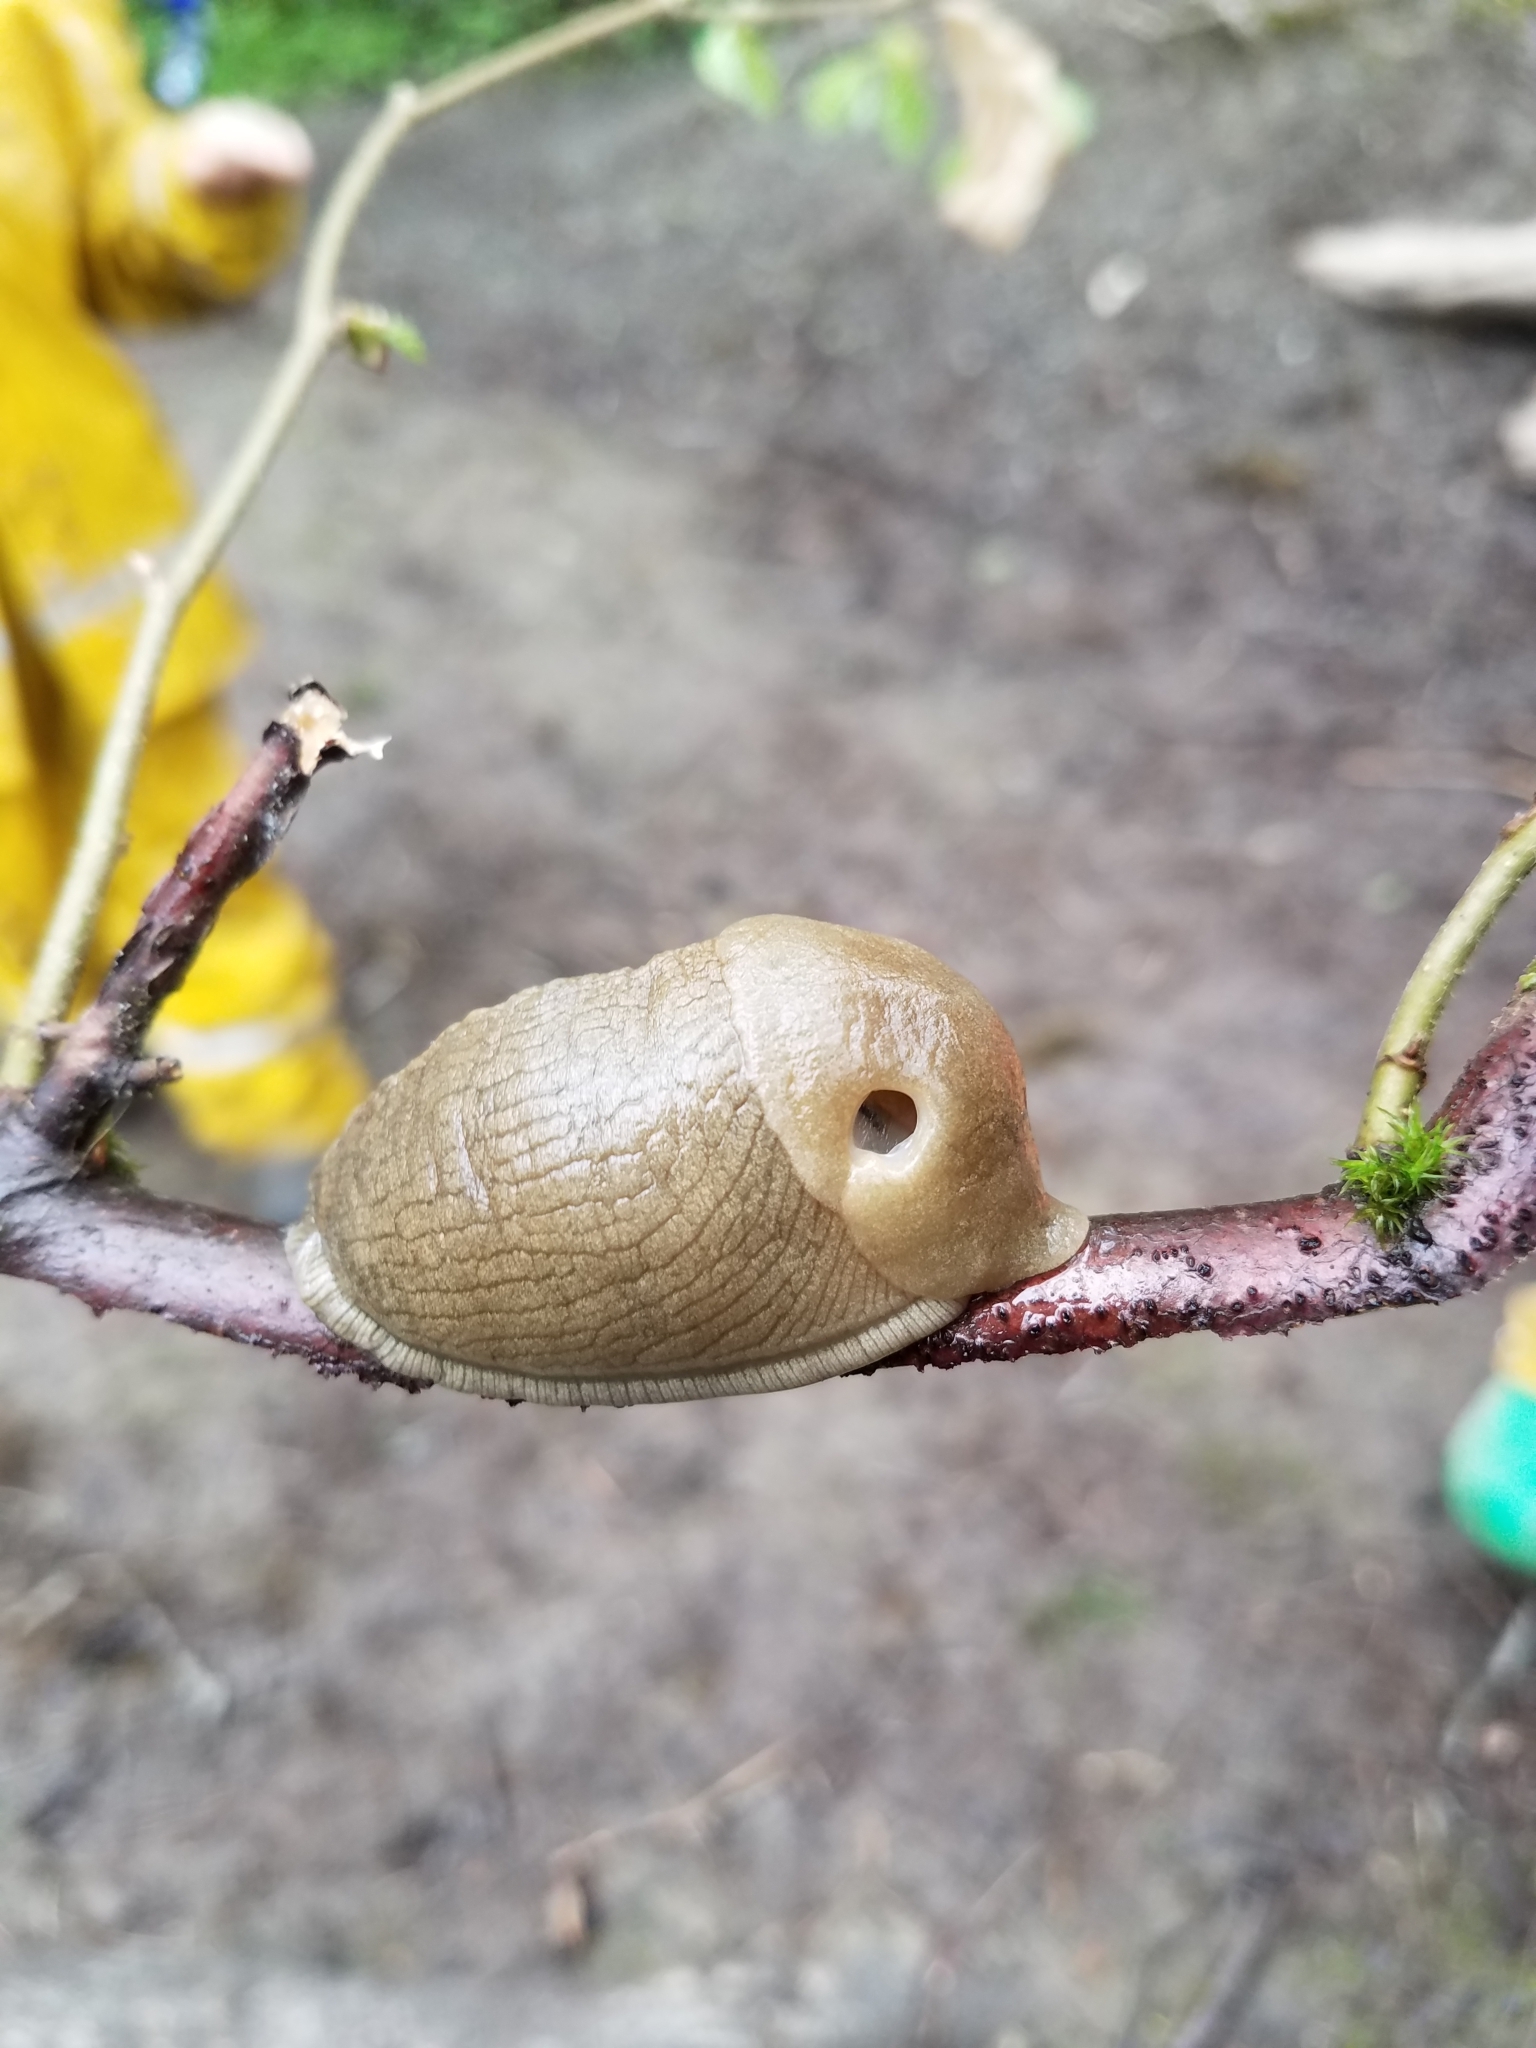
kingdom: Animalia
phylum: Mollusca
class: Gastropoda
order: Stylommatophora
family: Ariolimacidae
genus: Ariolimax
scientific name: Ariolimax columbianus
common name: Pacific banana slug
